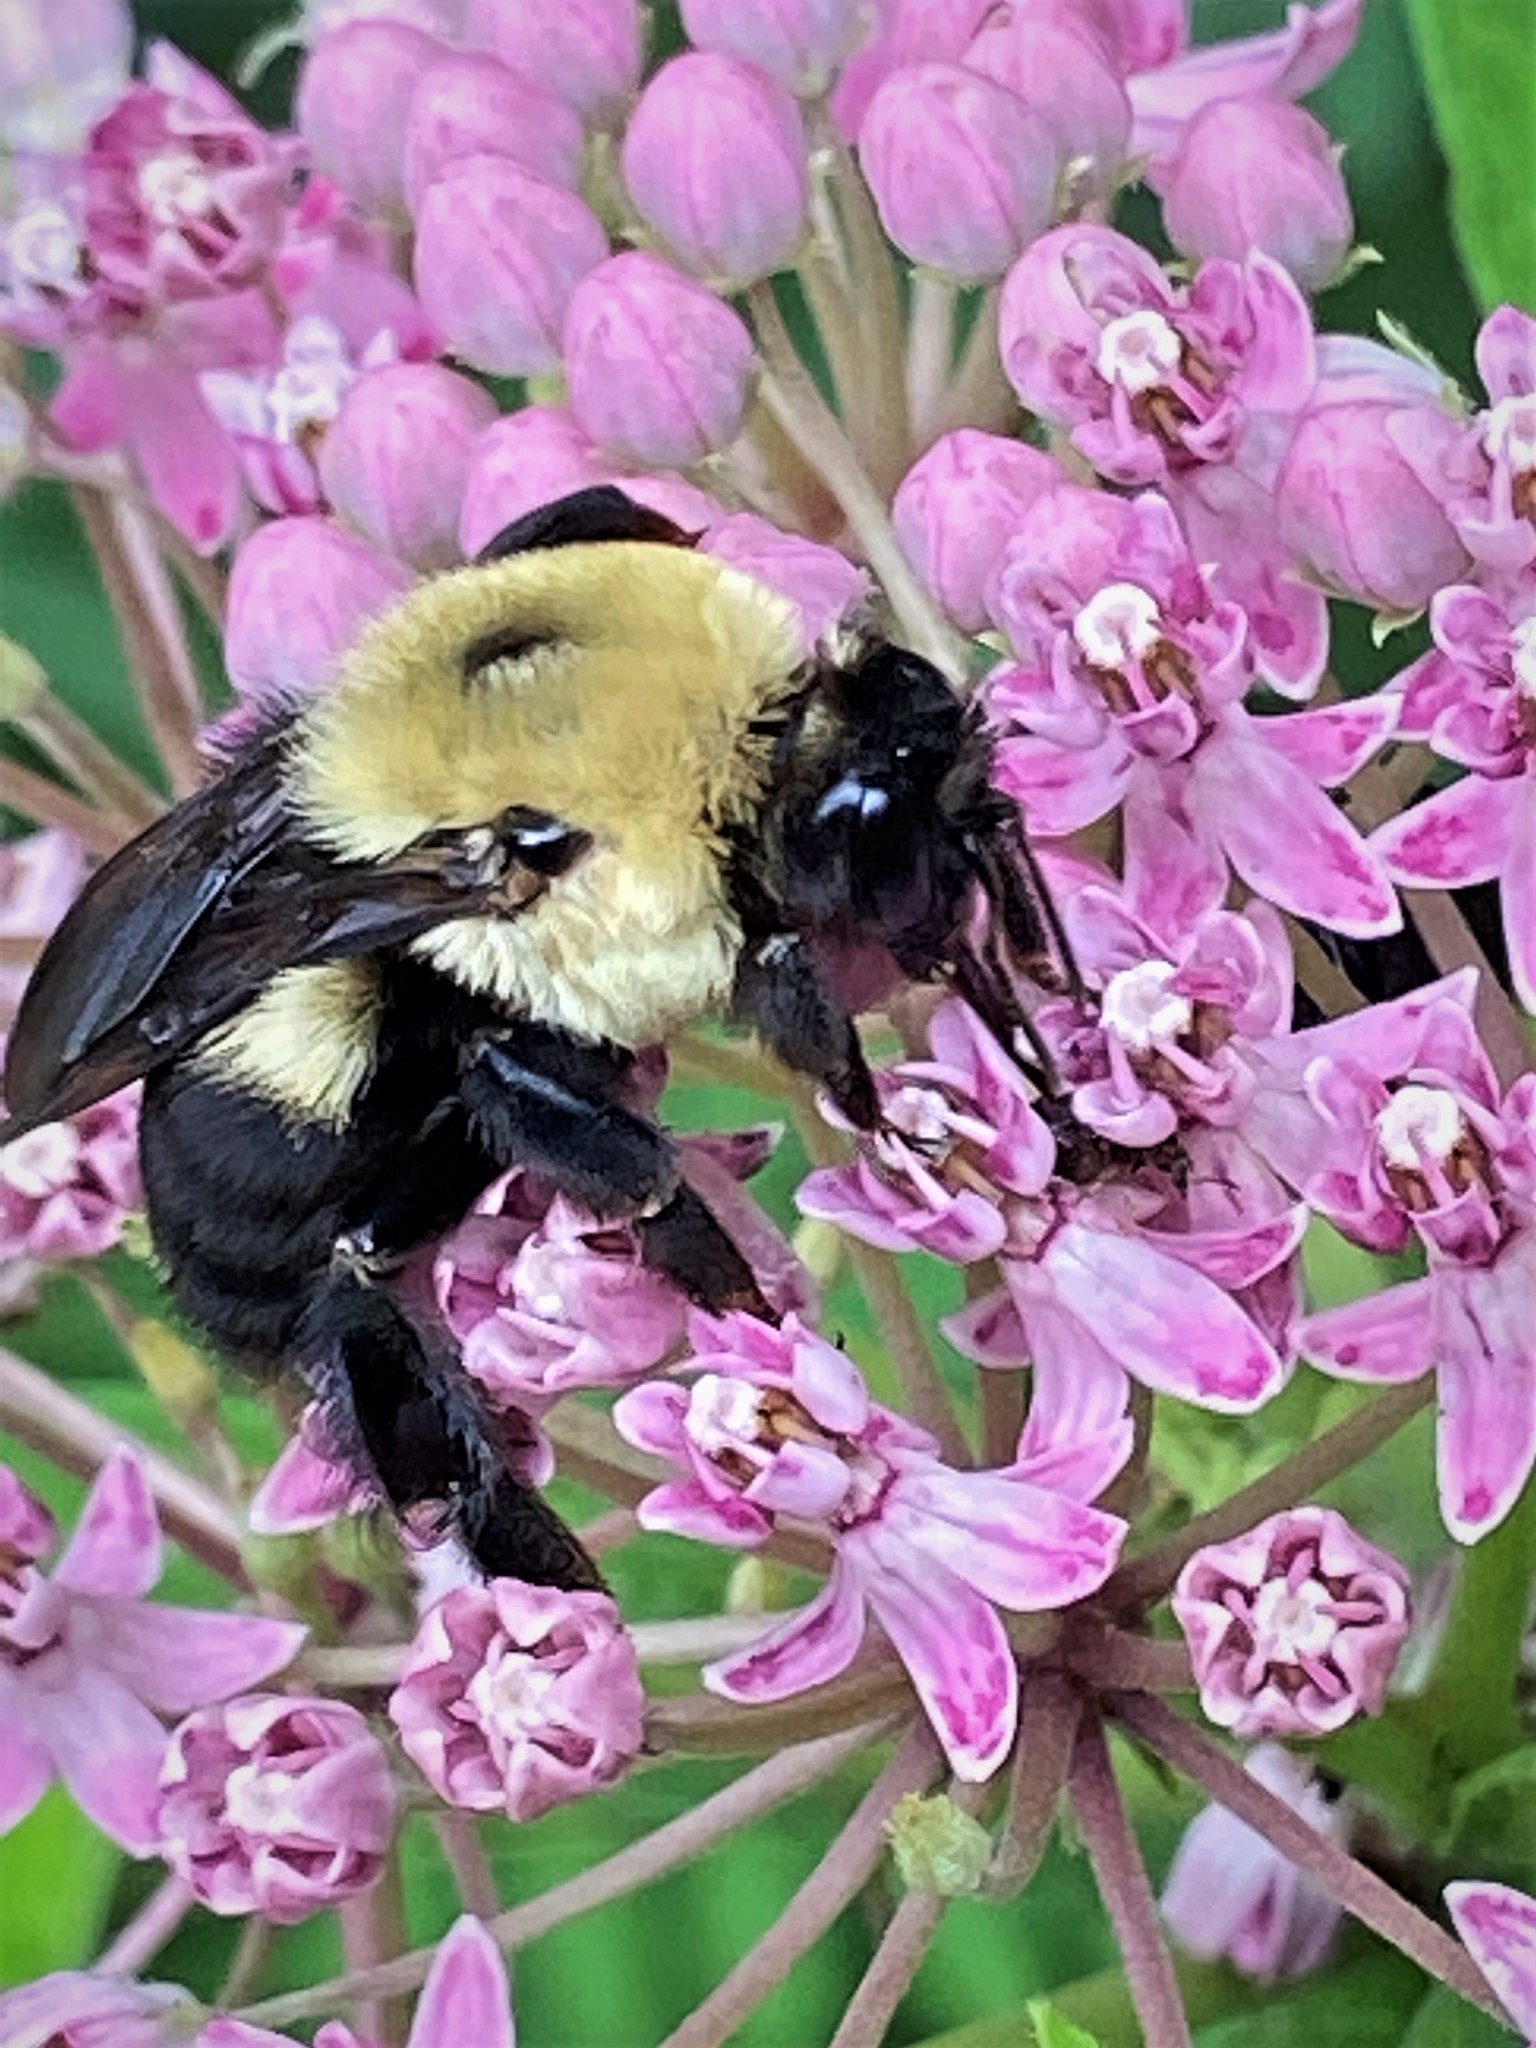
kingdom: Animalia
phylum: Arthropoda
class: Insecta
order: Hymenoptera
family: Apidae
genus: Bombus
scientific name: Bombus griseocollis
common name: Brown-belted bumble bee
